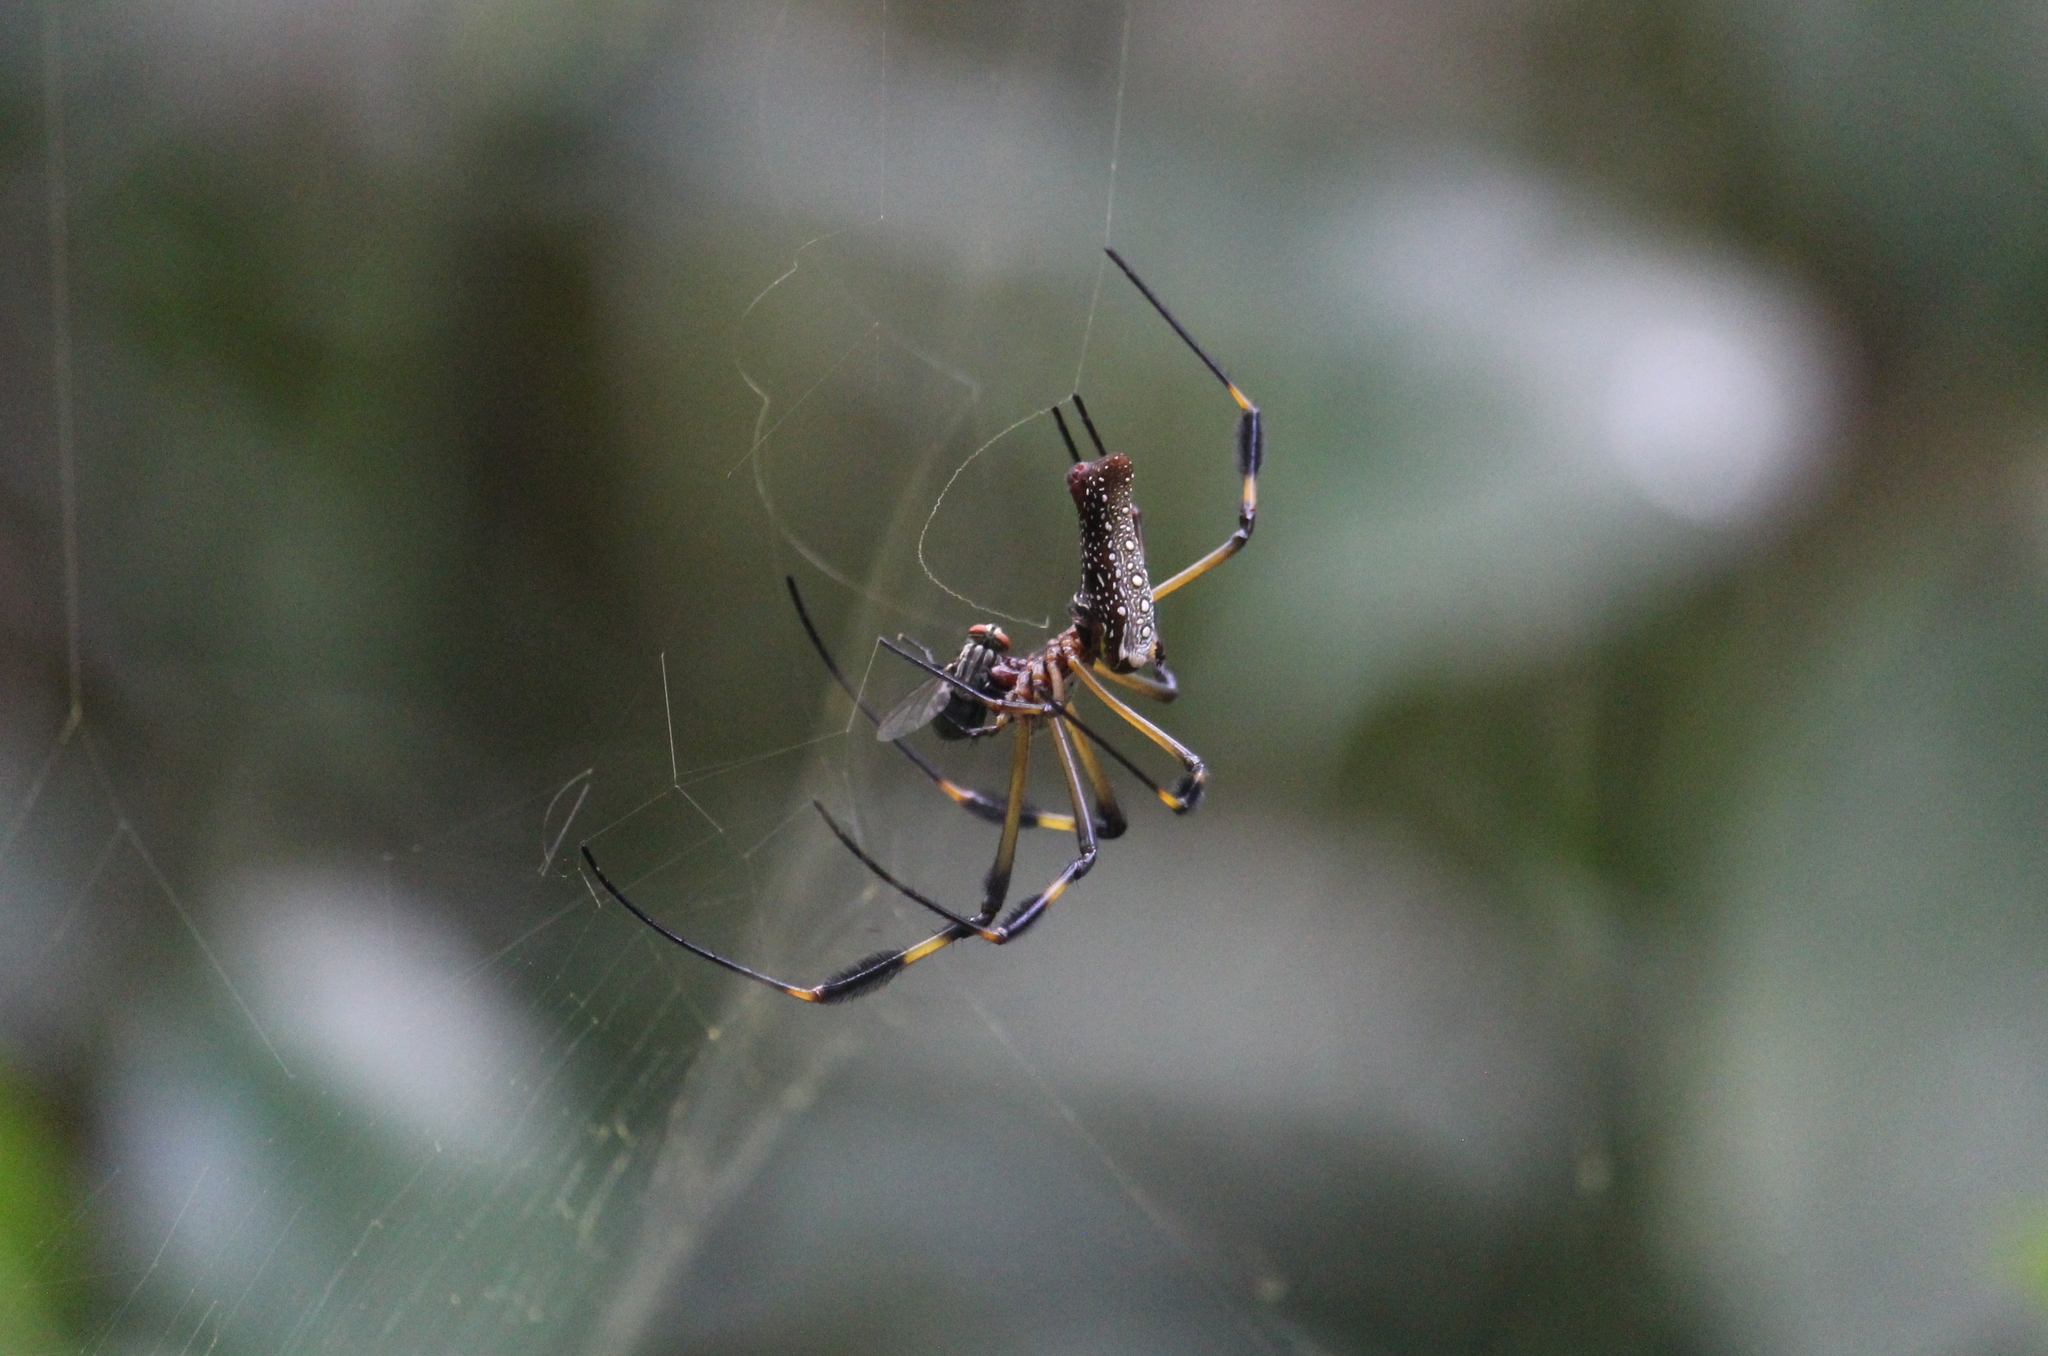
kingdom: Animalia
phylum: Arthropoda
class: Arachnida
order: Araneae
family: Araneidae
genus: Trichonephila
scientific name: Trichonephila clavipes
